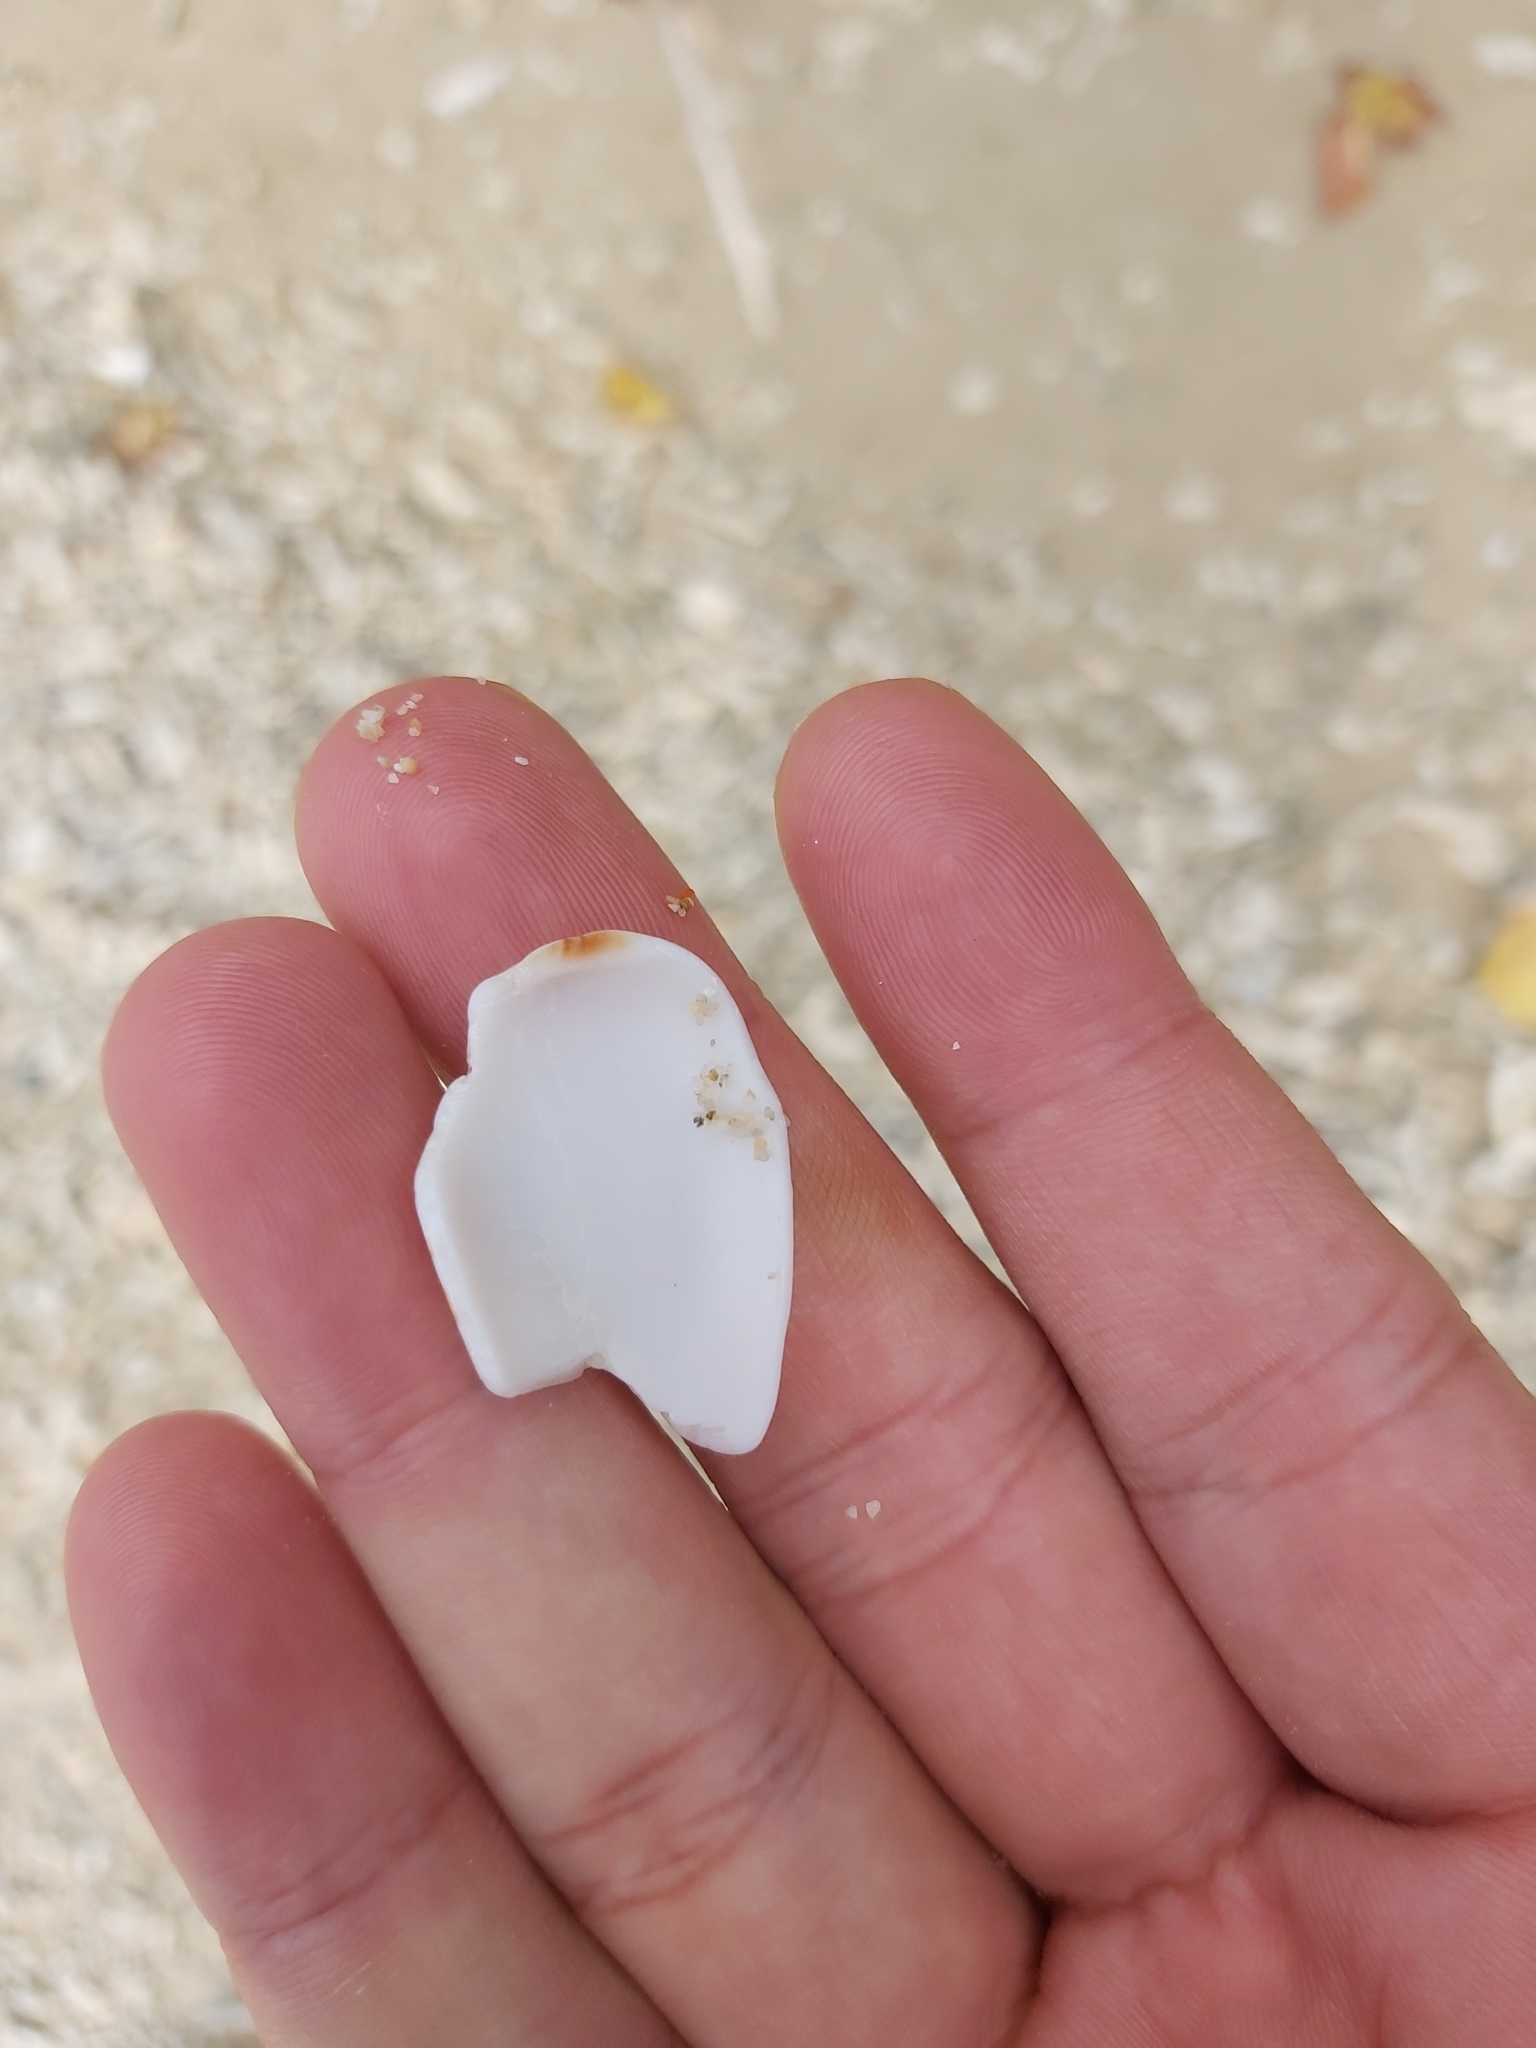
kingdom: Animalia
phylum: Mollusca
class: Gastropoda
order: Neogastropoda
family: Conidae
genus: Conus
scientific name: Conus textile
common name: Cloth-of-gold cone
